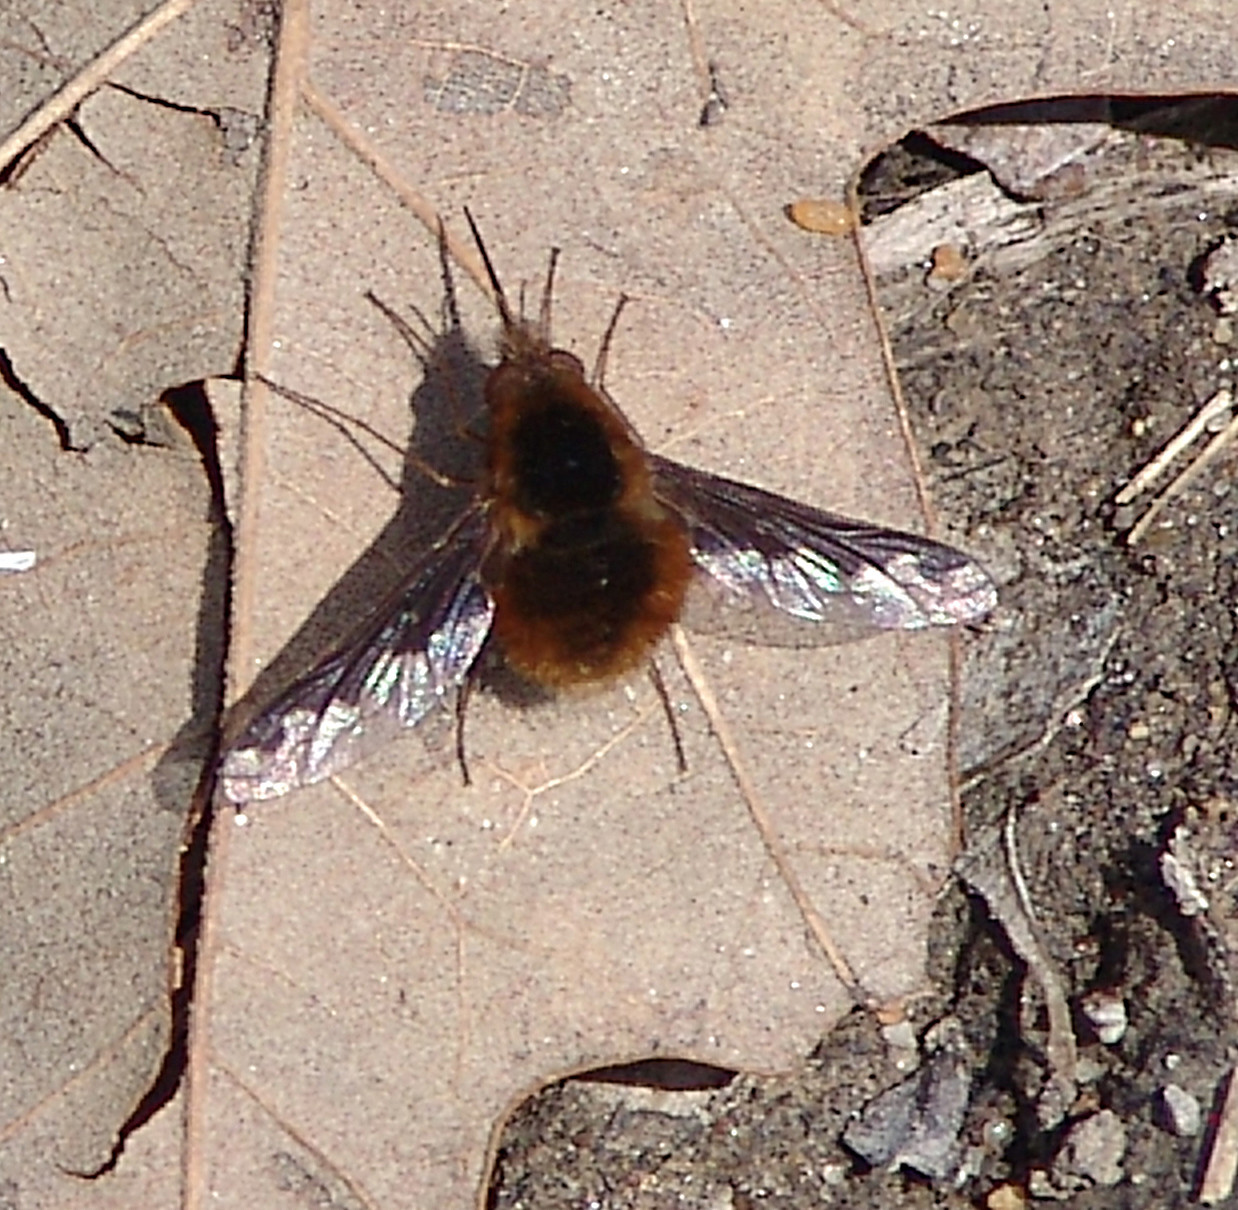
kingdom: Animalia
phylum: Arthropoda
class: Insecta
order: Diptera
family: Bombyliidae
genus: Bombylius
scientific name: Bombylius major
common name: Bee fly
